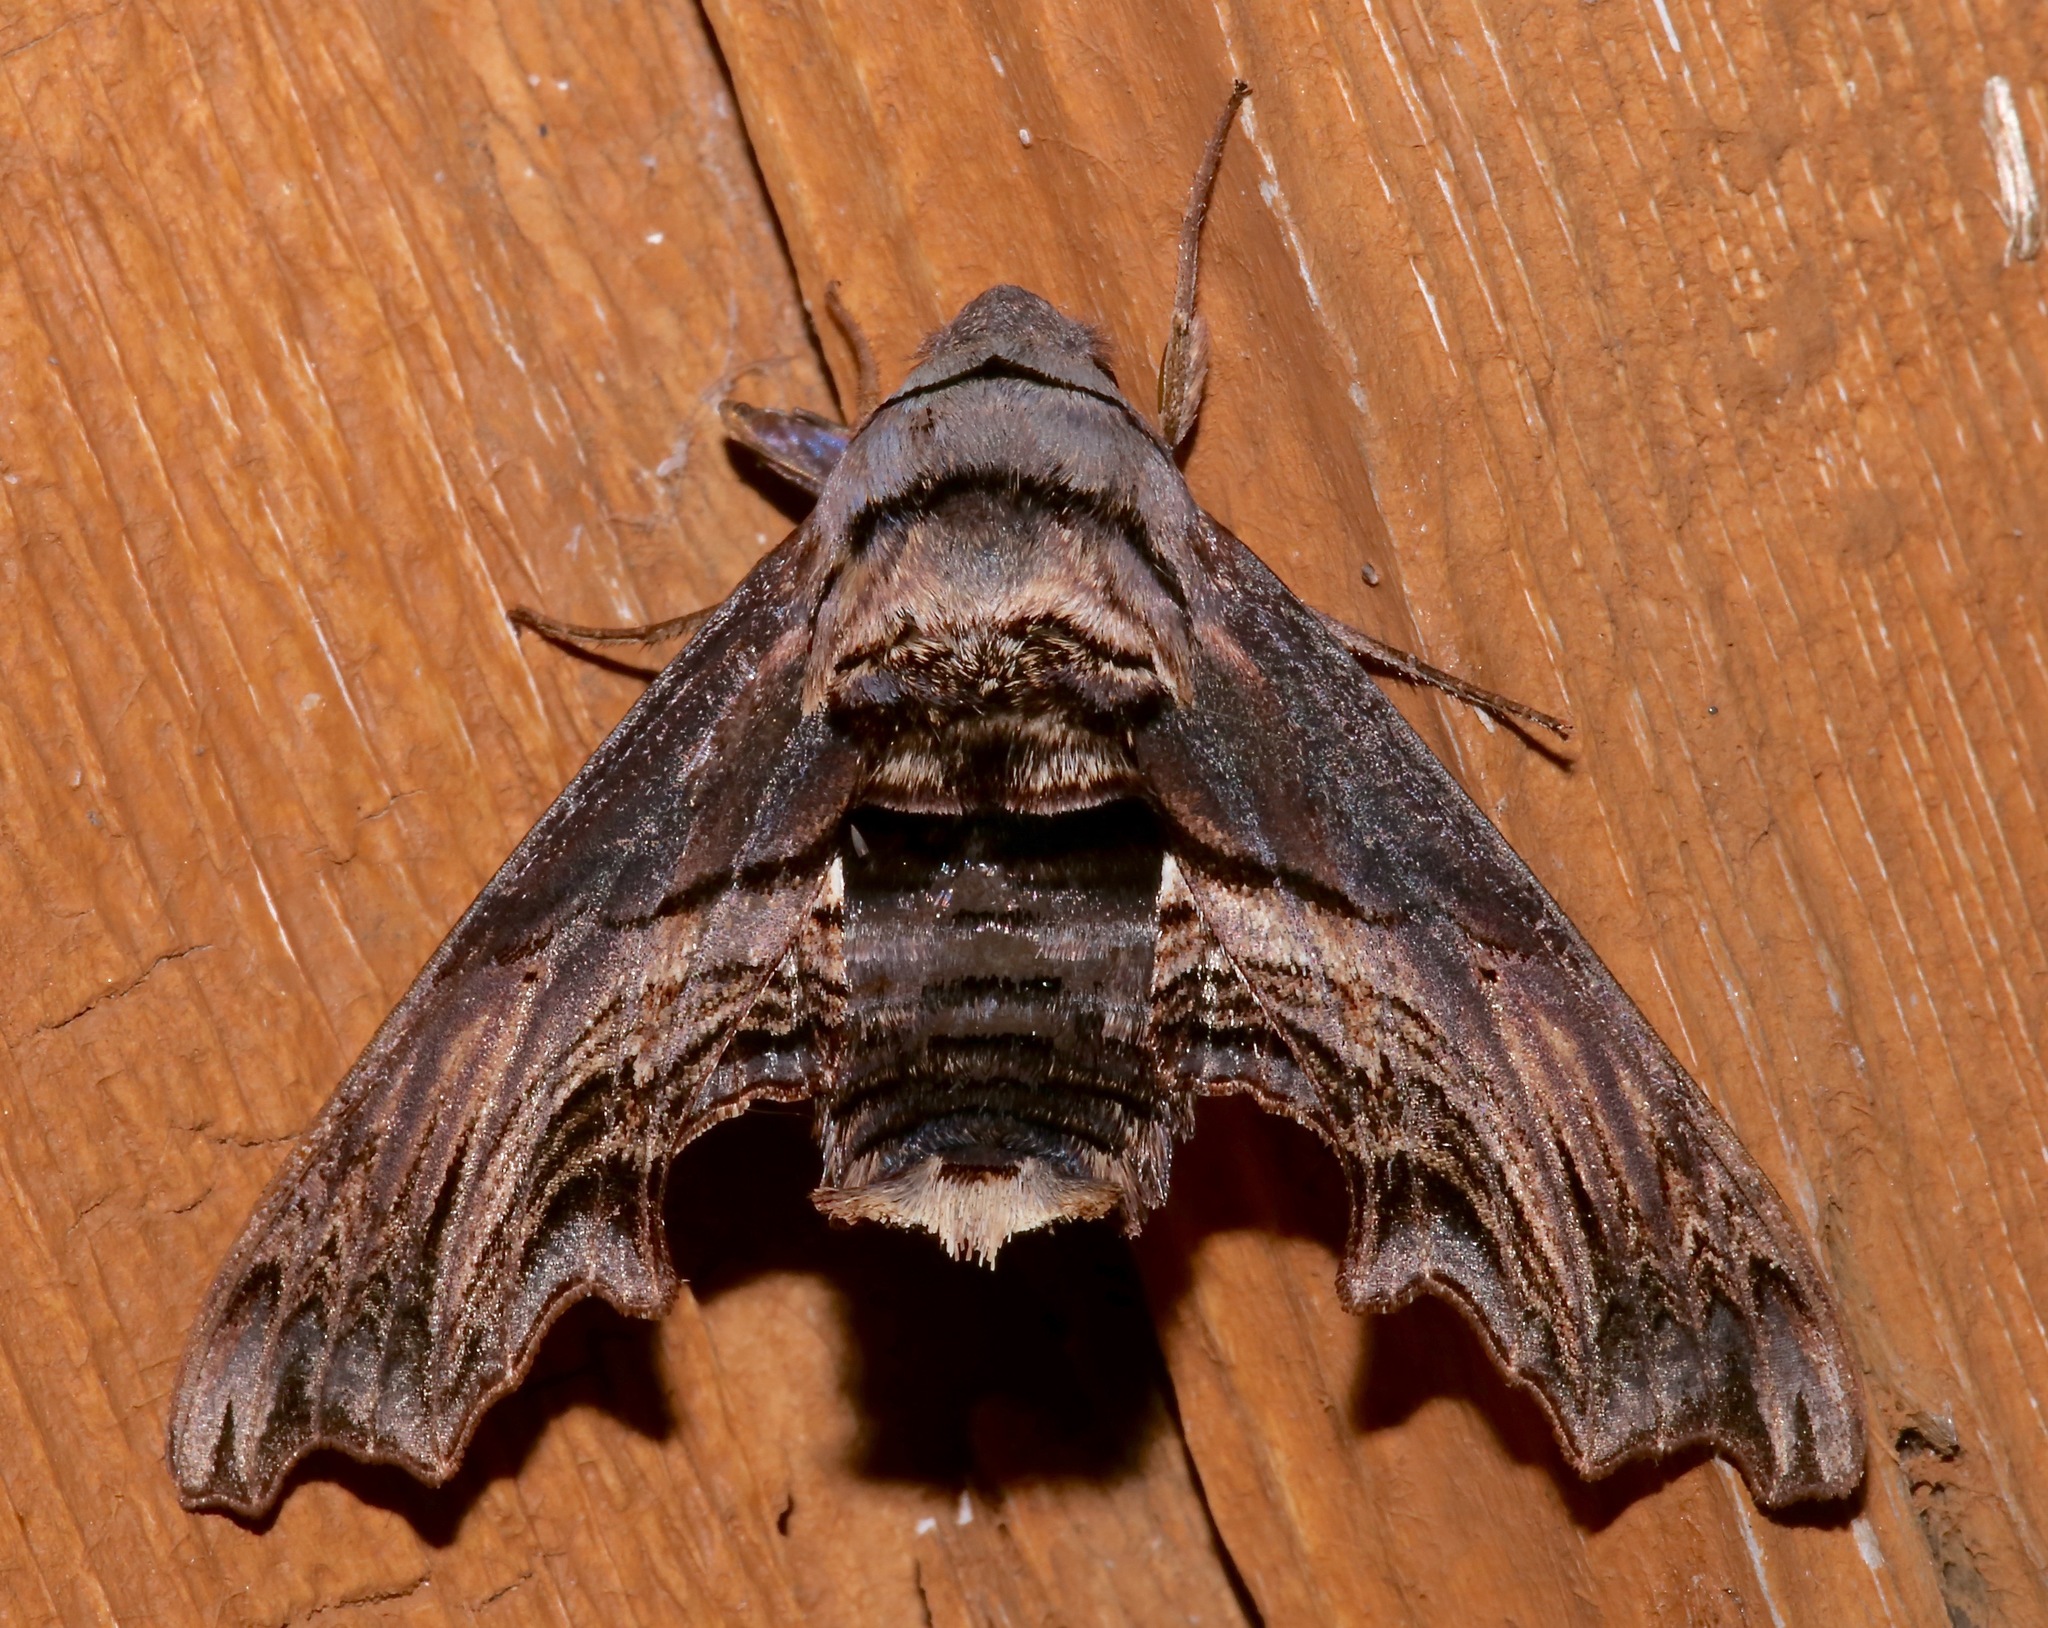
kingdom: Animalia
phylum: Arthropoda
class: Insecta
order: Lepidoptera
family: Sphingidae
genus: Sphecodina
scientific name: Sphecodina abbottii
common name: Abbott's sphinx
